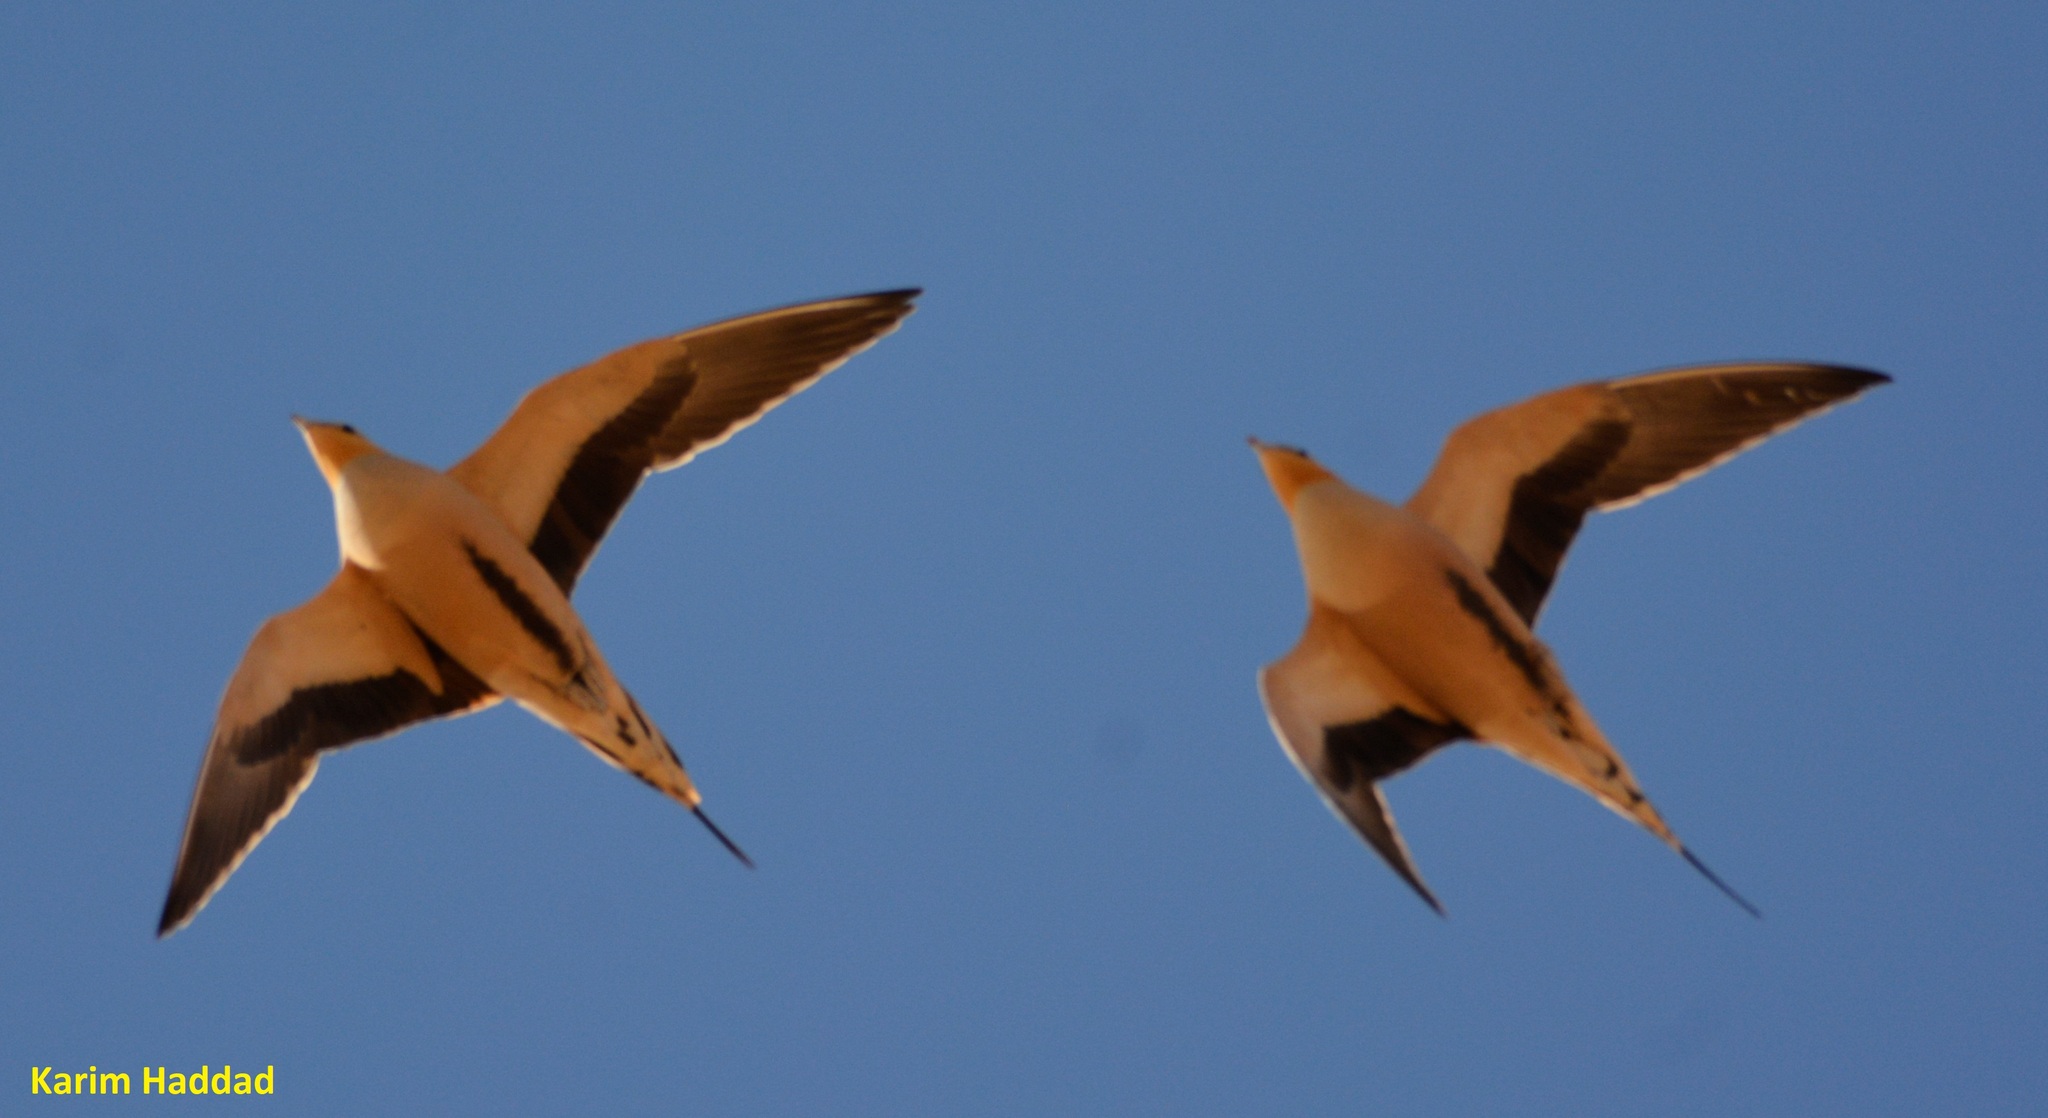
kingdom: Animalia
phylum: Chordata
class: Aves
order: Pteroclidiformes
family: Pteroclididae
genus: Pterocles
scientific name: Pterocles senegallus
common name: Spotted sandgrouse
